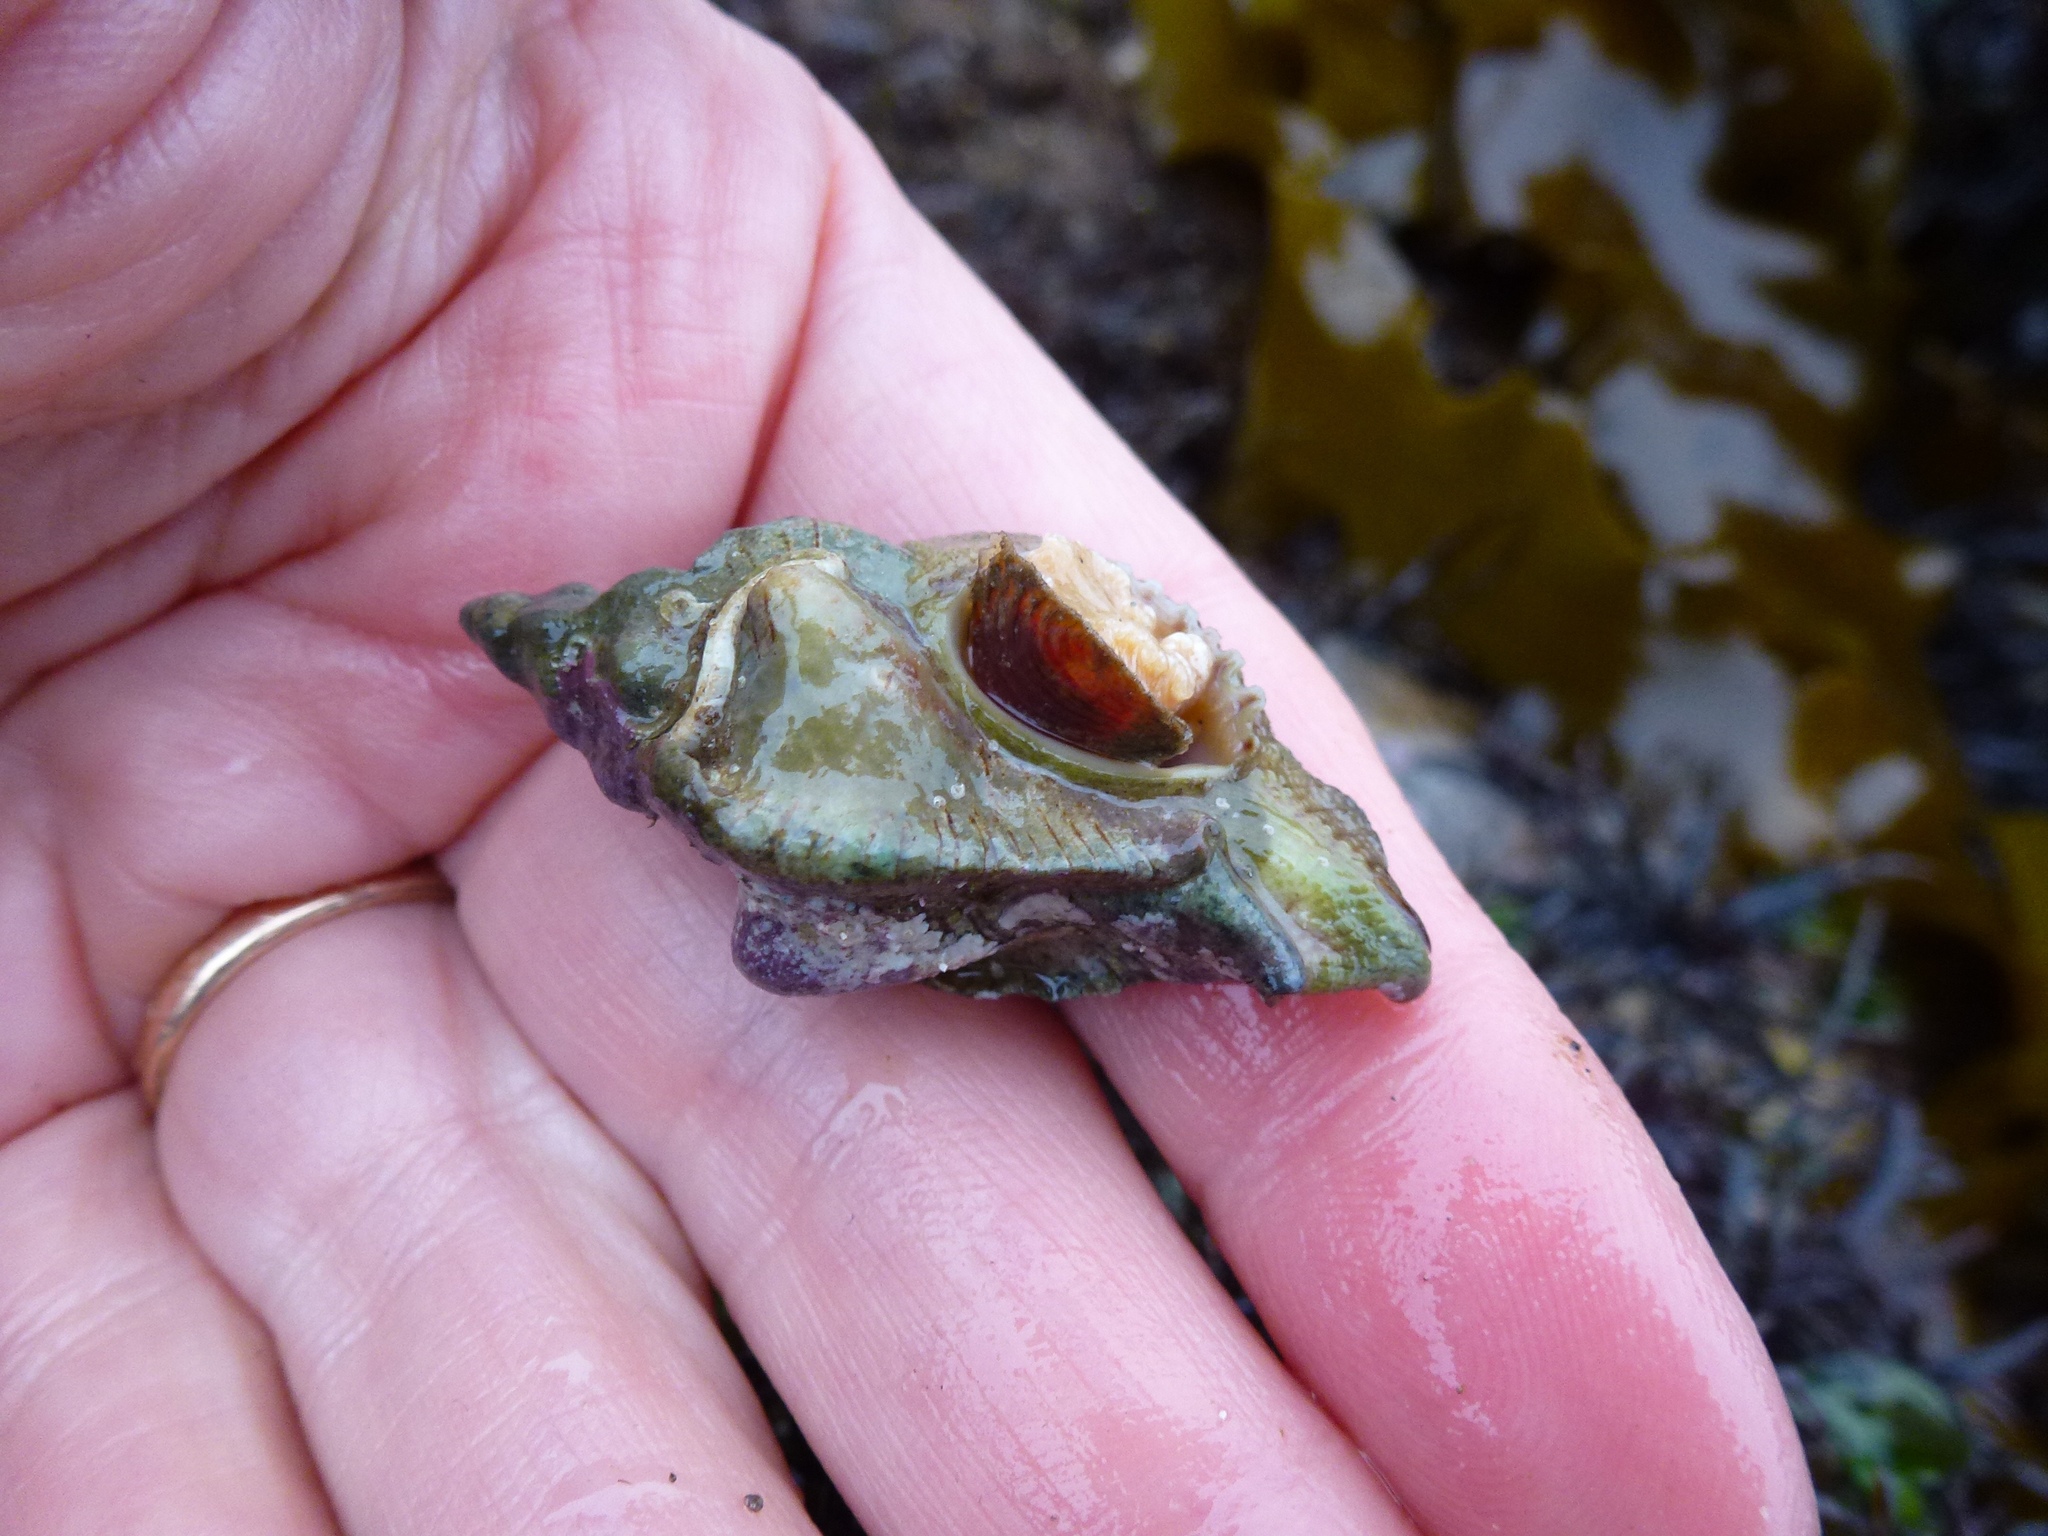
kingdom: Animalia
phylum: Mollusca
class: Gastropoda
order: Neogastropoda
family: Muricidae
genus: Pteropurpura
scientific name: Pteropurpura festiva
